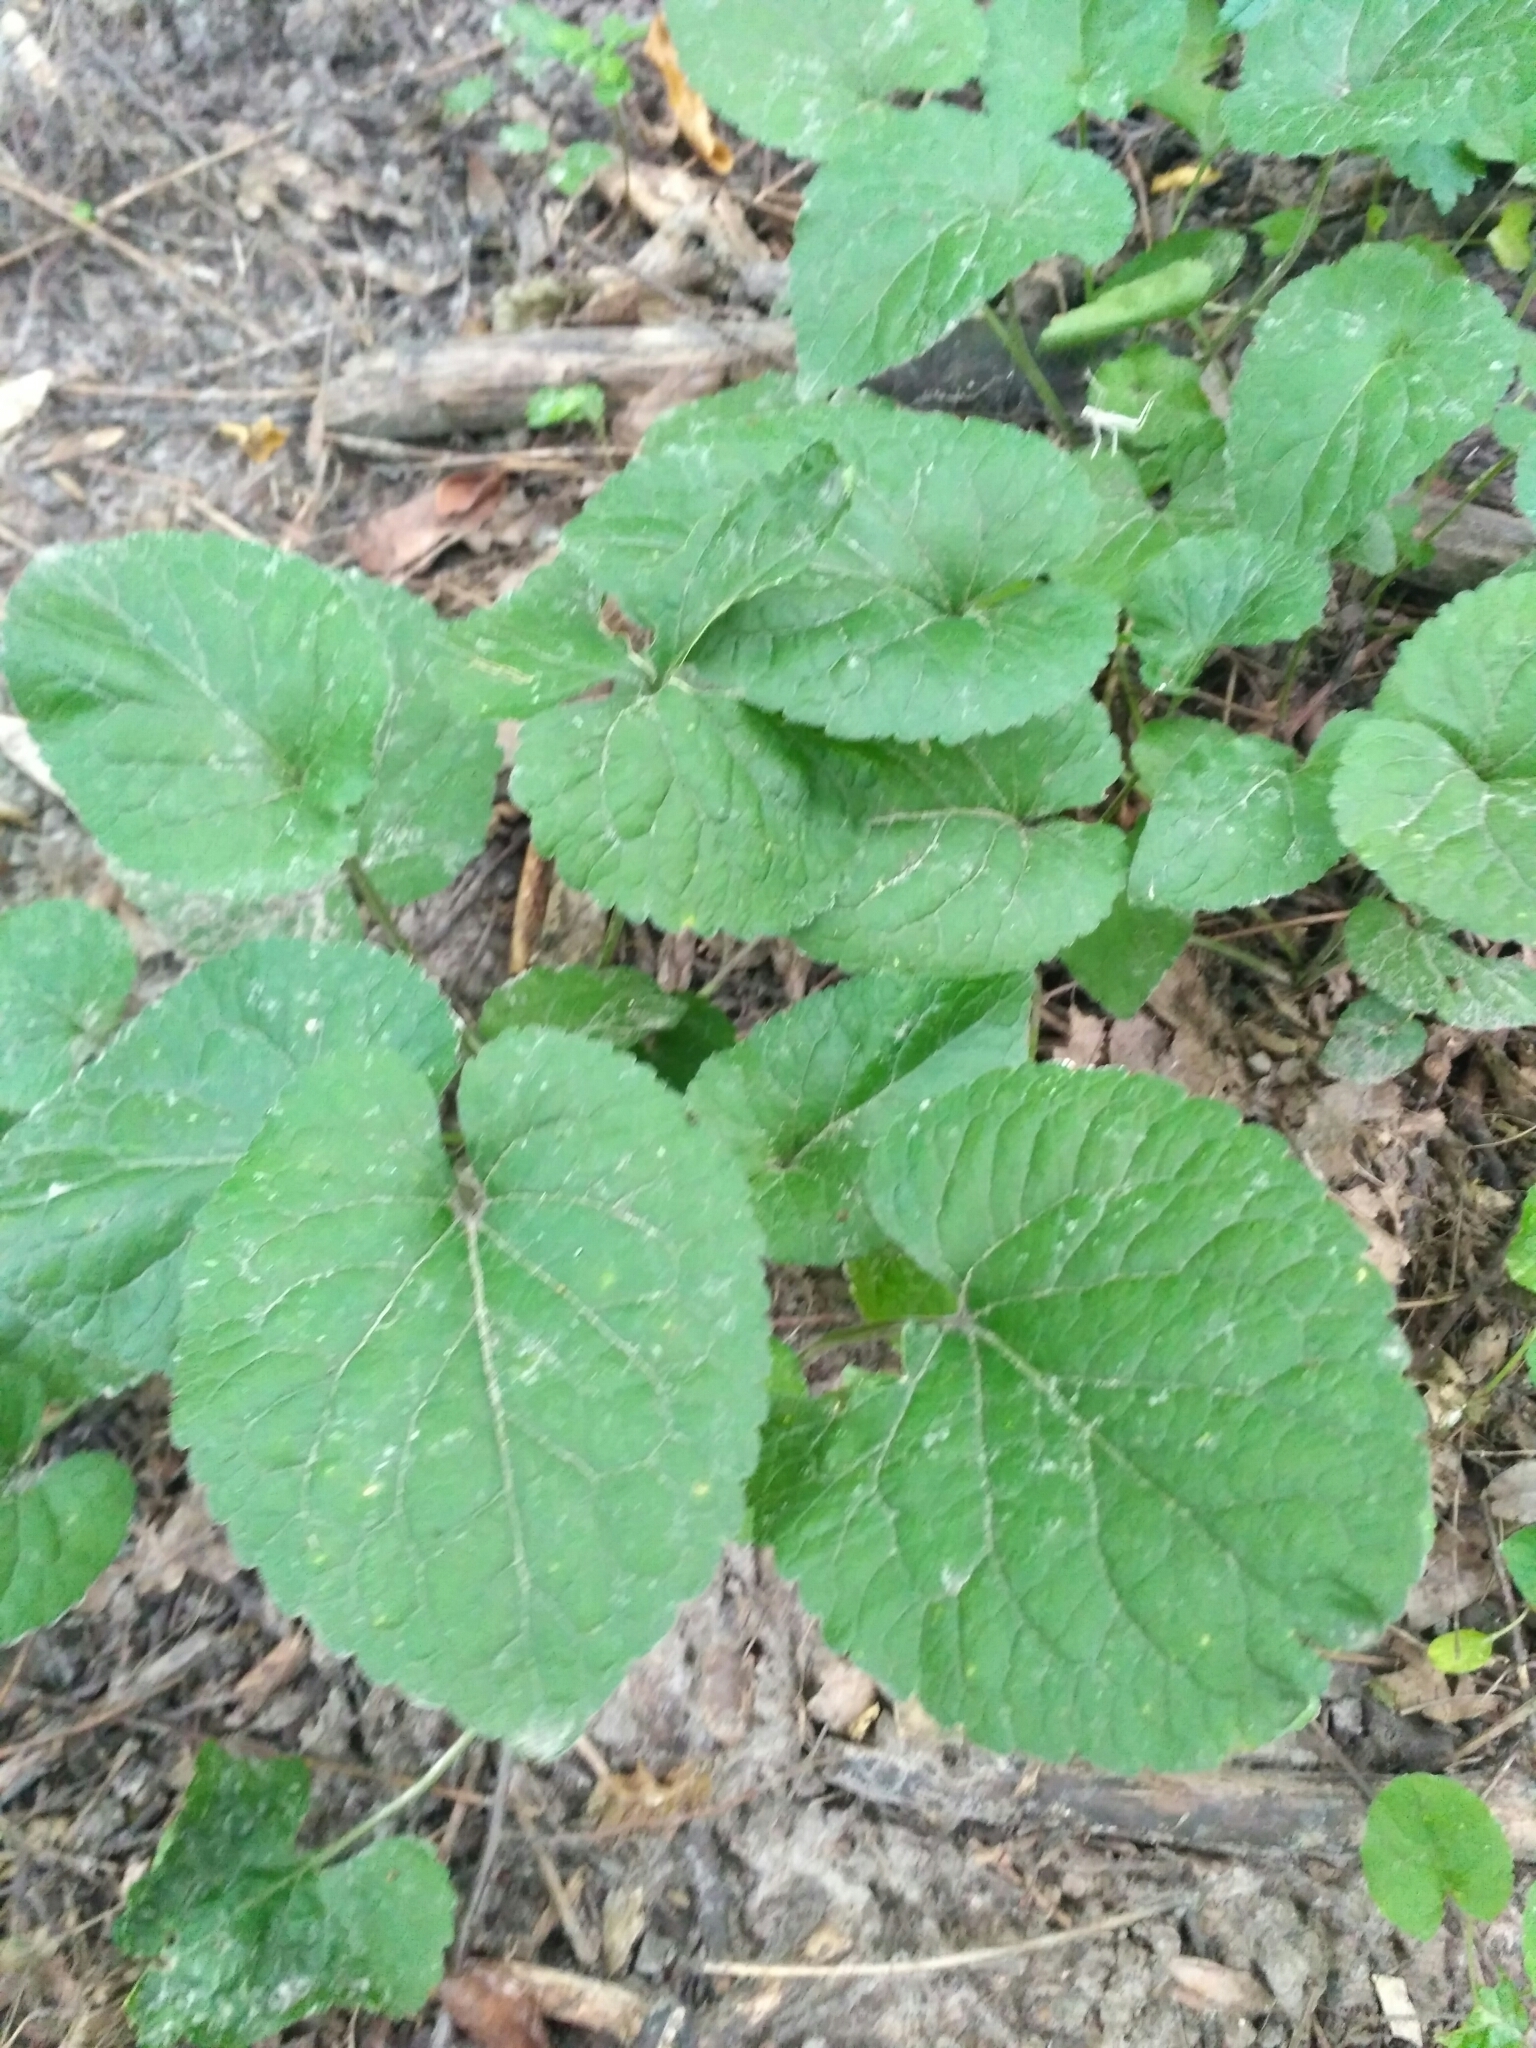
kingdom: Plantae
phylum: Tracheophyta
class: Magnoliopsida
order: Malpighiales
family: Violaceae
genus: Viola
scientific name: Viola odorata
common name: Sweet violet
